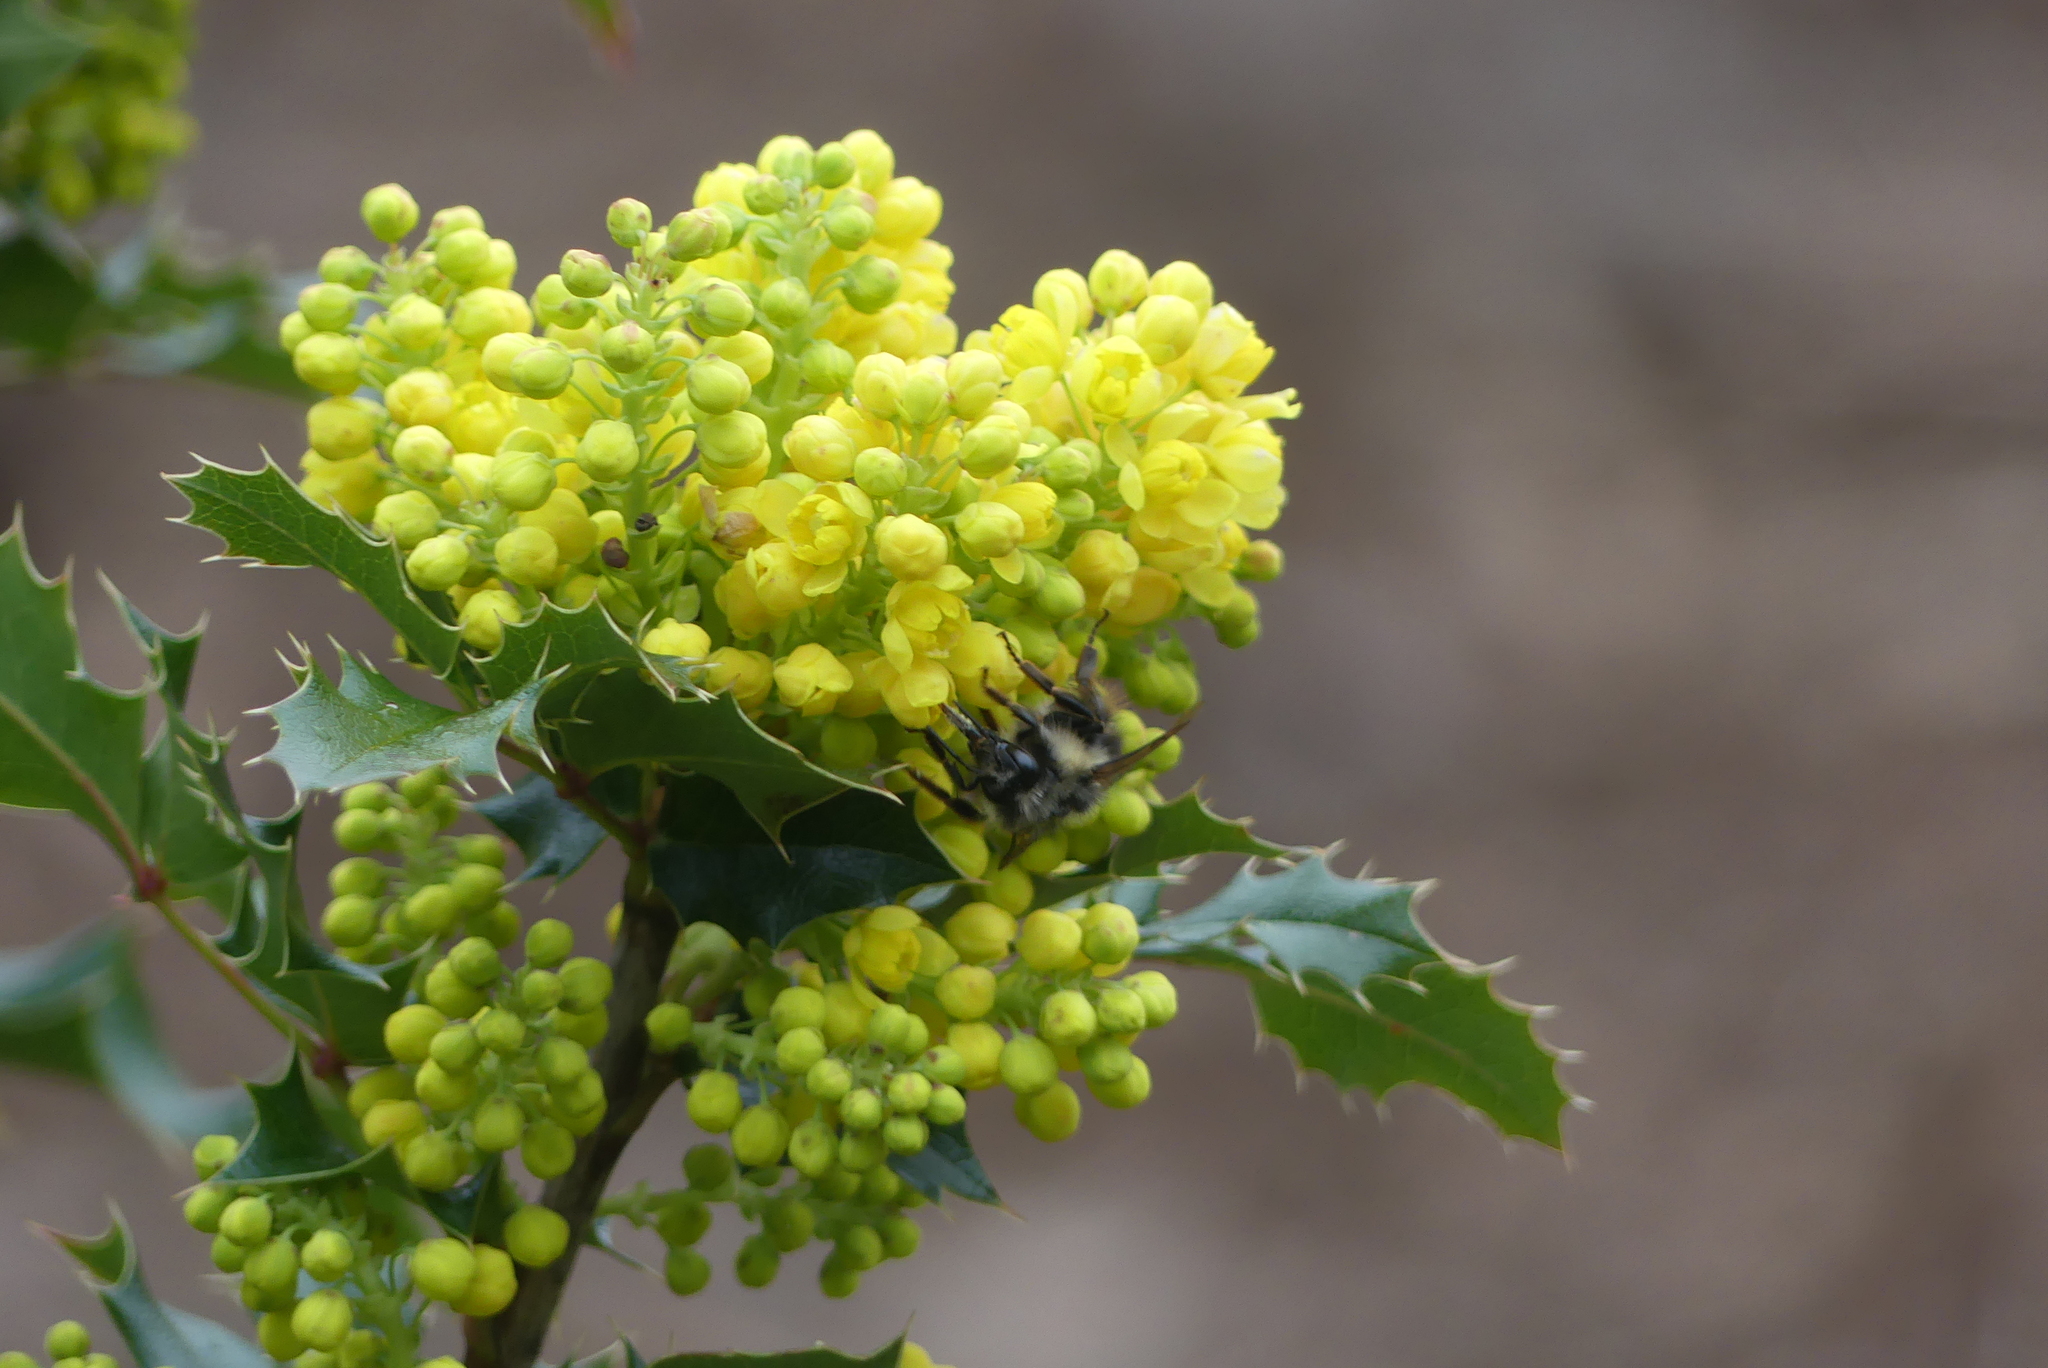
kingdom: Animalia
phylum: Arthropoda
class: Insecta
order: Hymenoptera
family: Apidae
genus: Bombus
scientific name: Bombus mixtus
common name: Fuzzy-horned bumble bee
